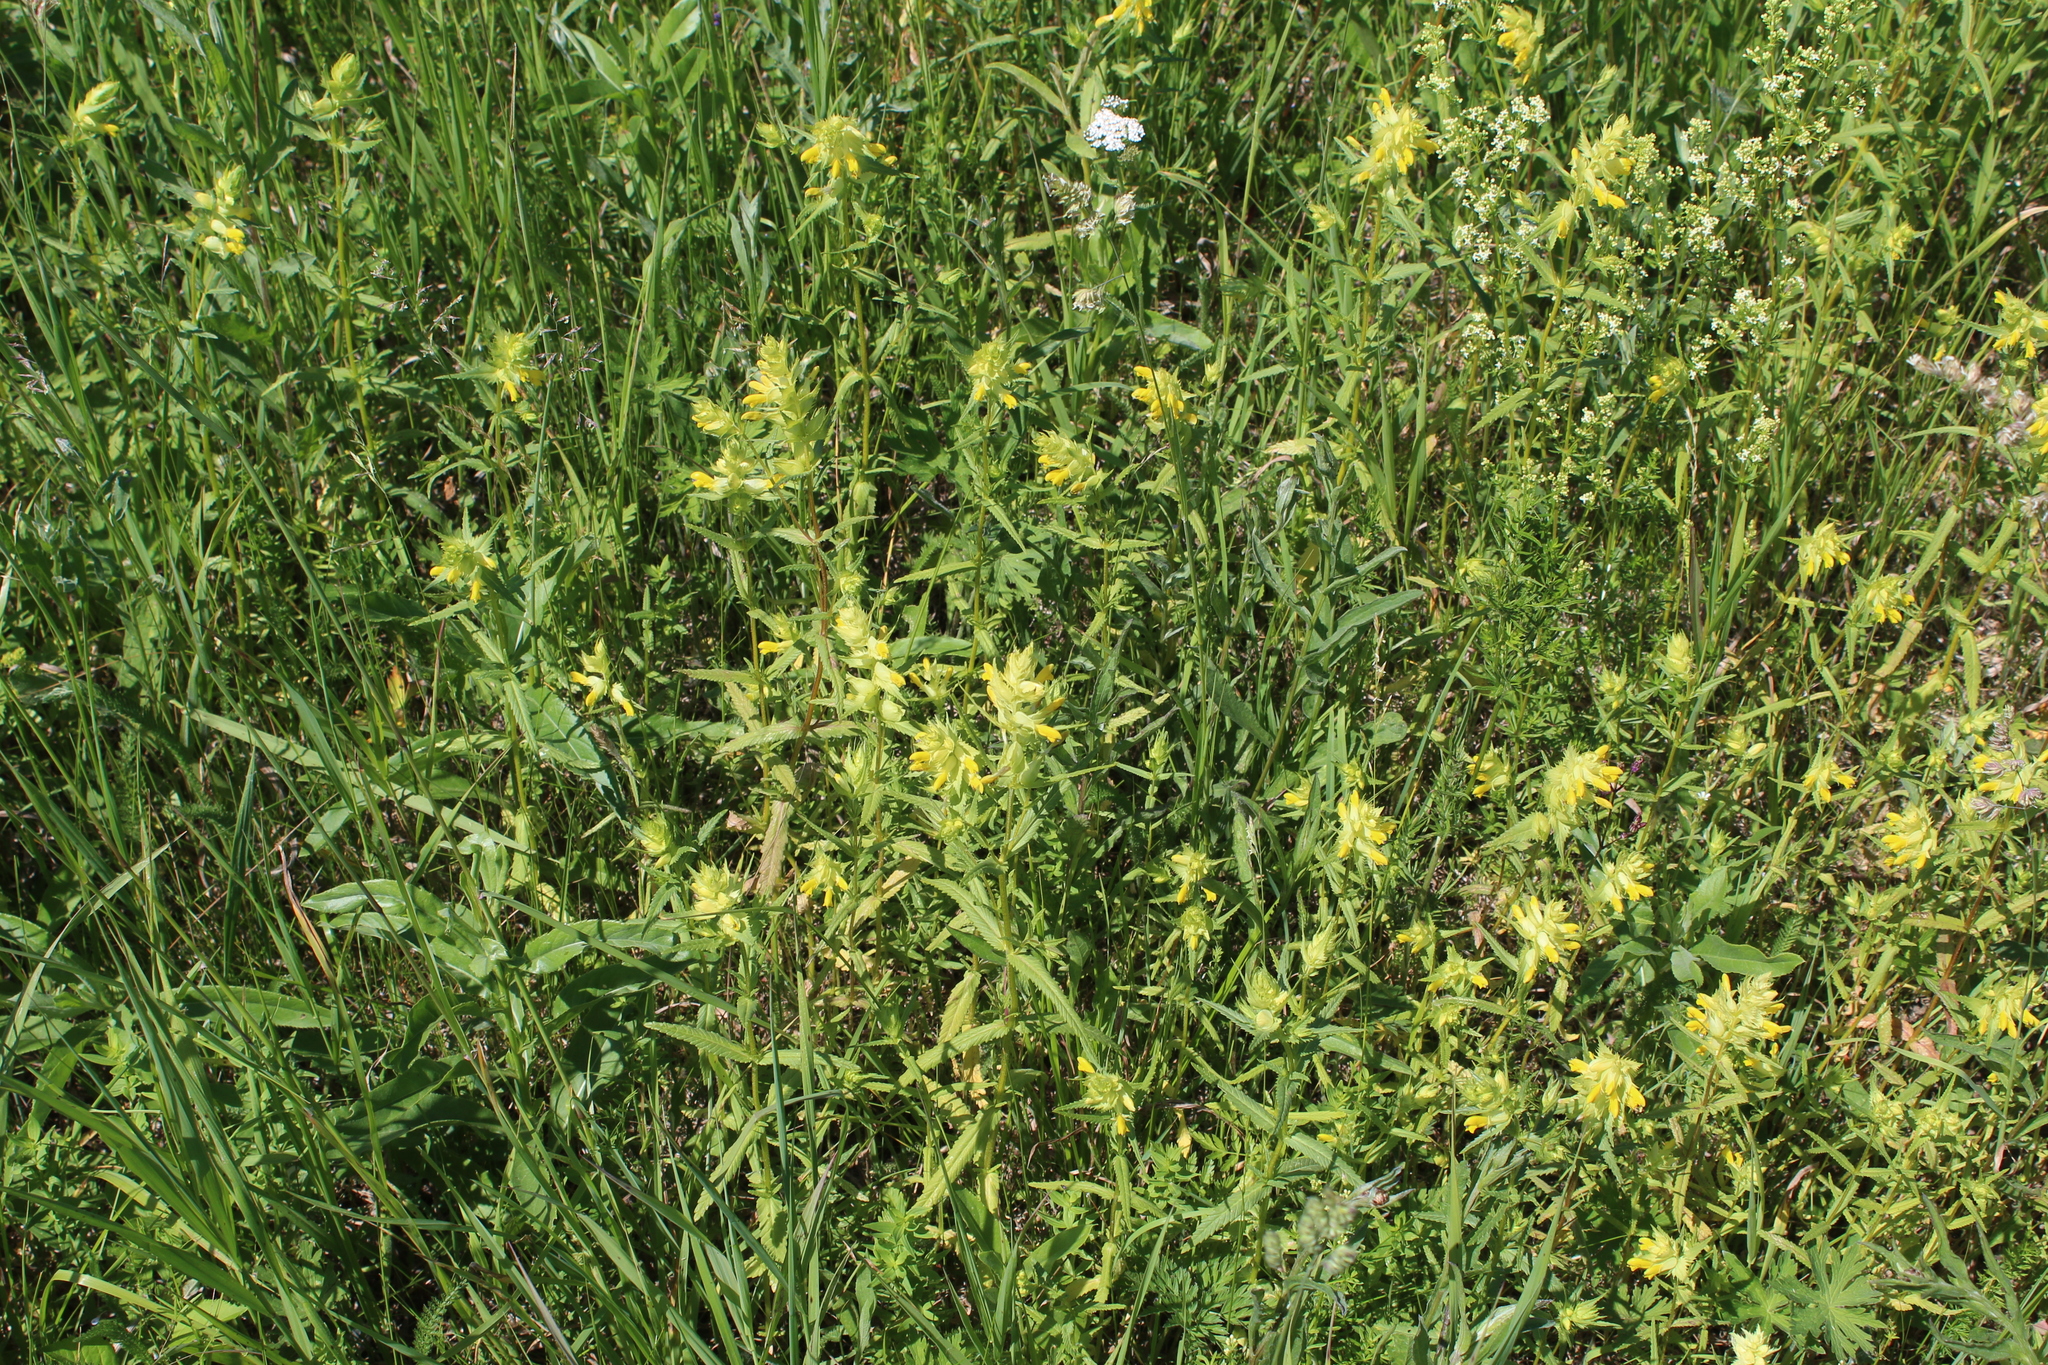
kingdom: Plantae
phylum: Tracheophyta
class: Magnoliopsida
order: Lamiales
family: Orobanchaceae
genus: Rhinanthus
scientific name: Rhinanthus serotinus
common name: Late-flowering yellow rattle
